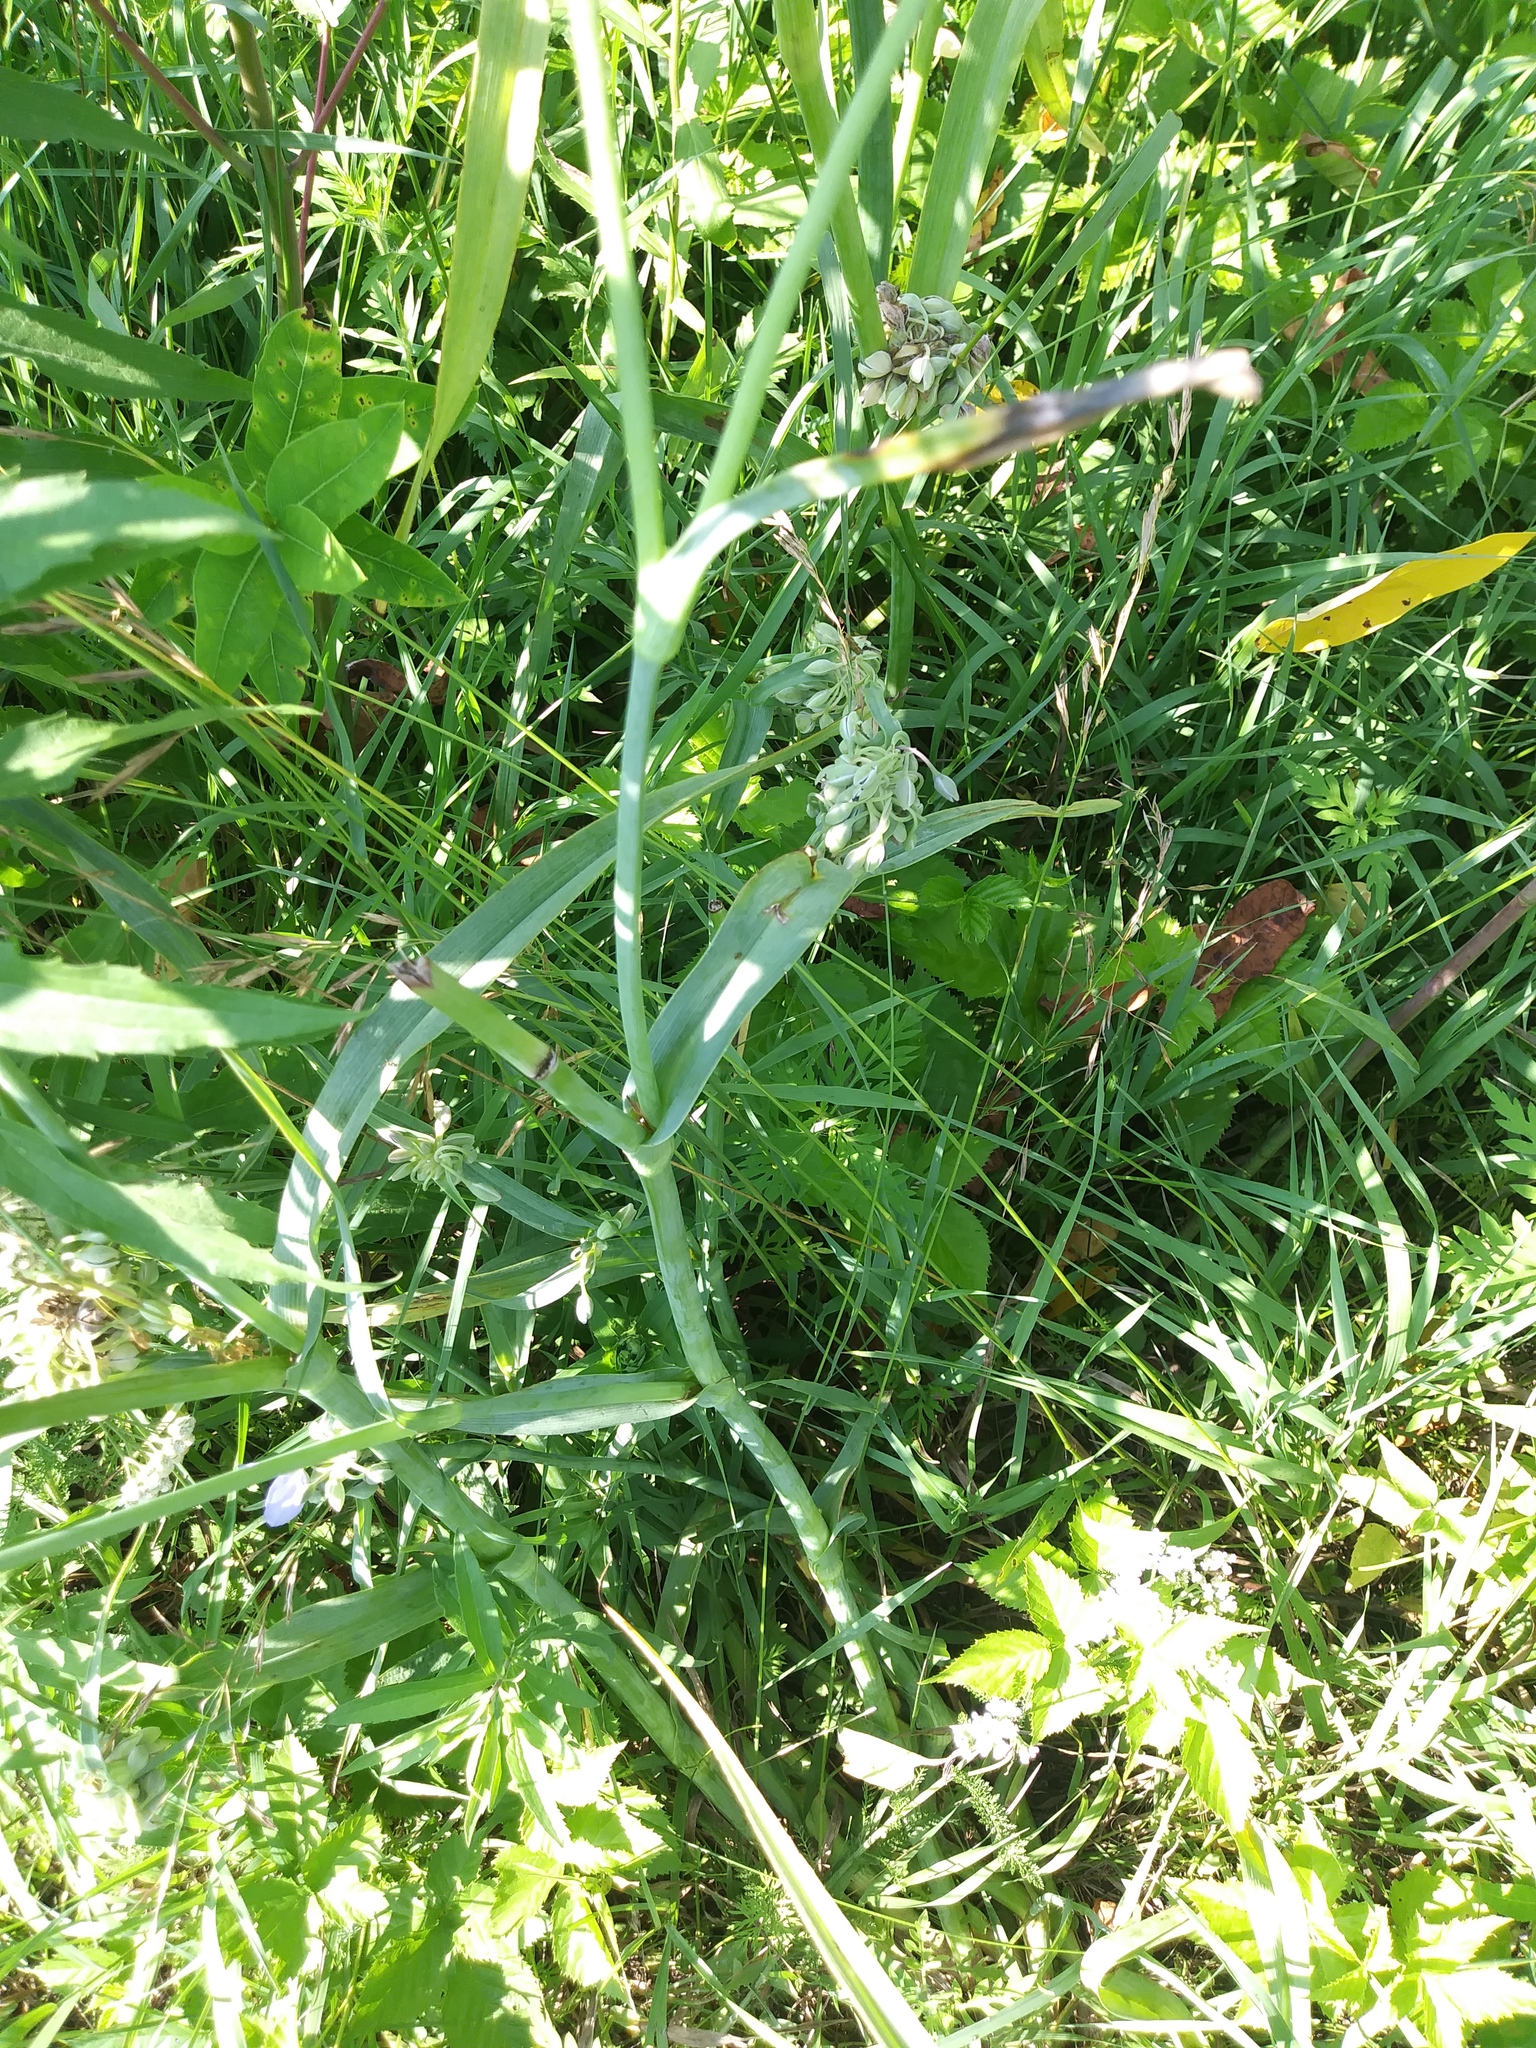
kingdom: Plantae
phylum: Tracheophyta
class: Liliopsida
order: Commelinales
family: Commelinaceae
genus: Tradescantia
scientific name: Tradescantia ohiensis
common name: Ohio spiderwort
